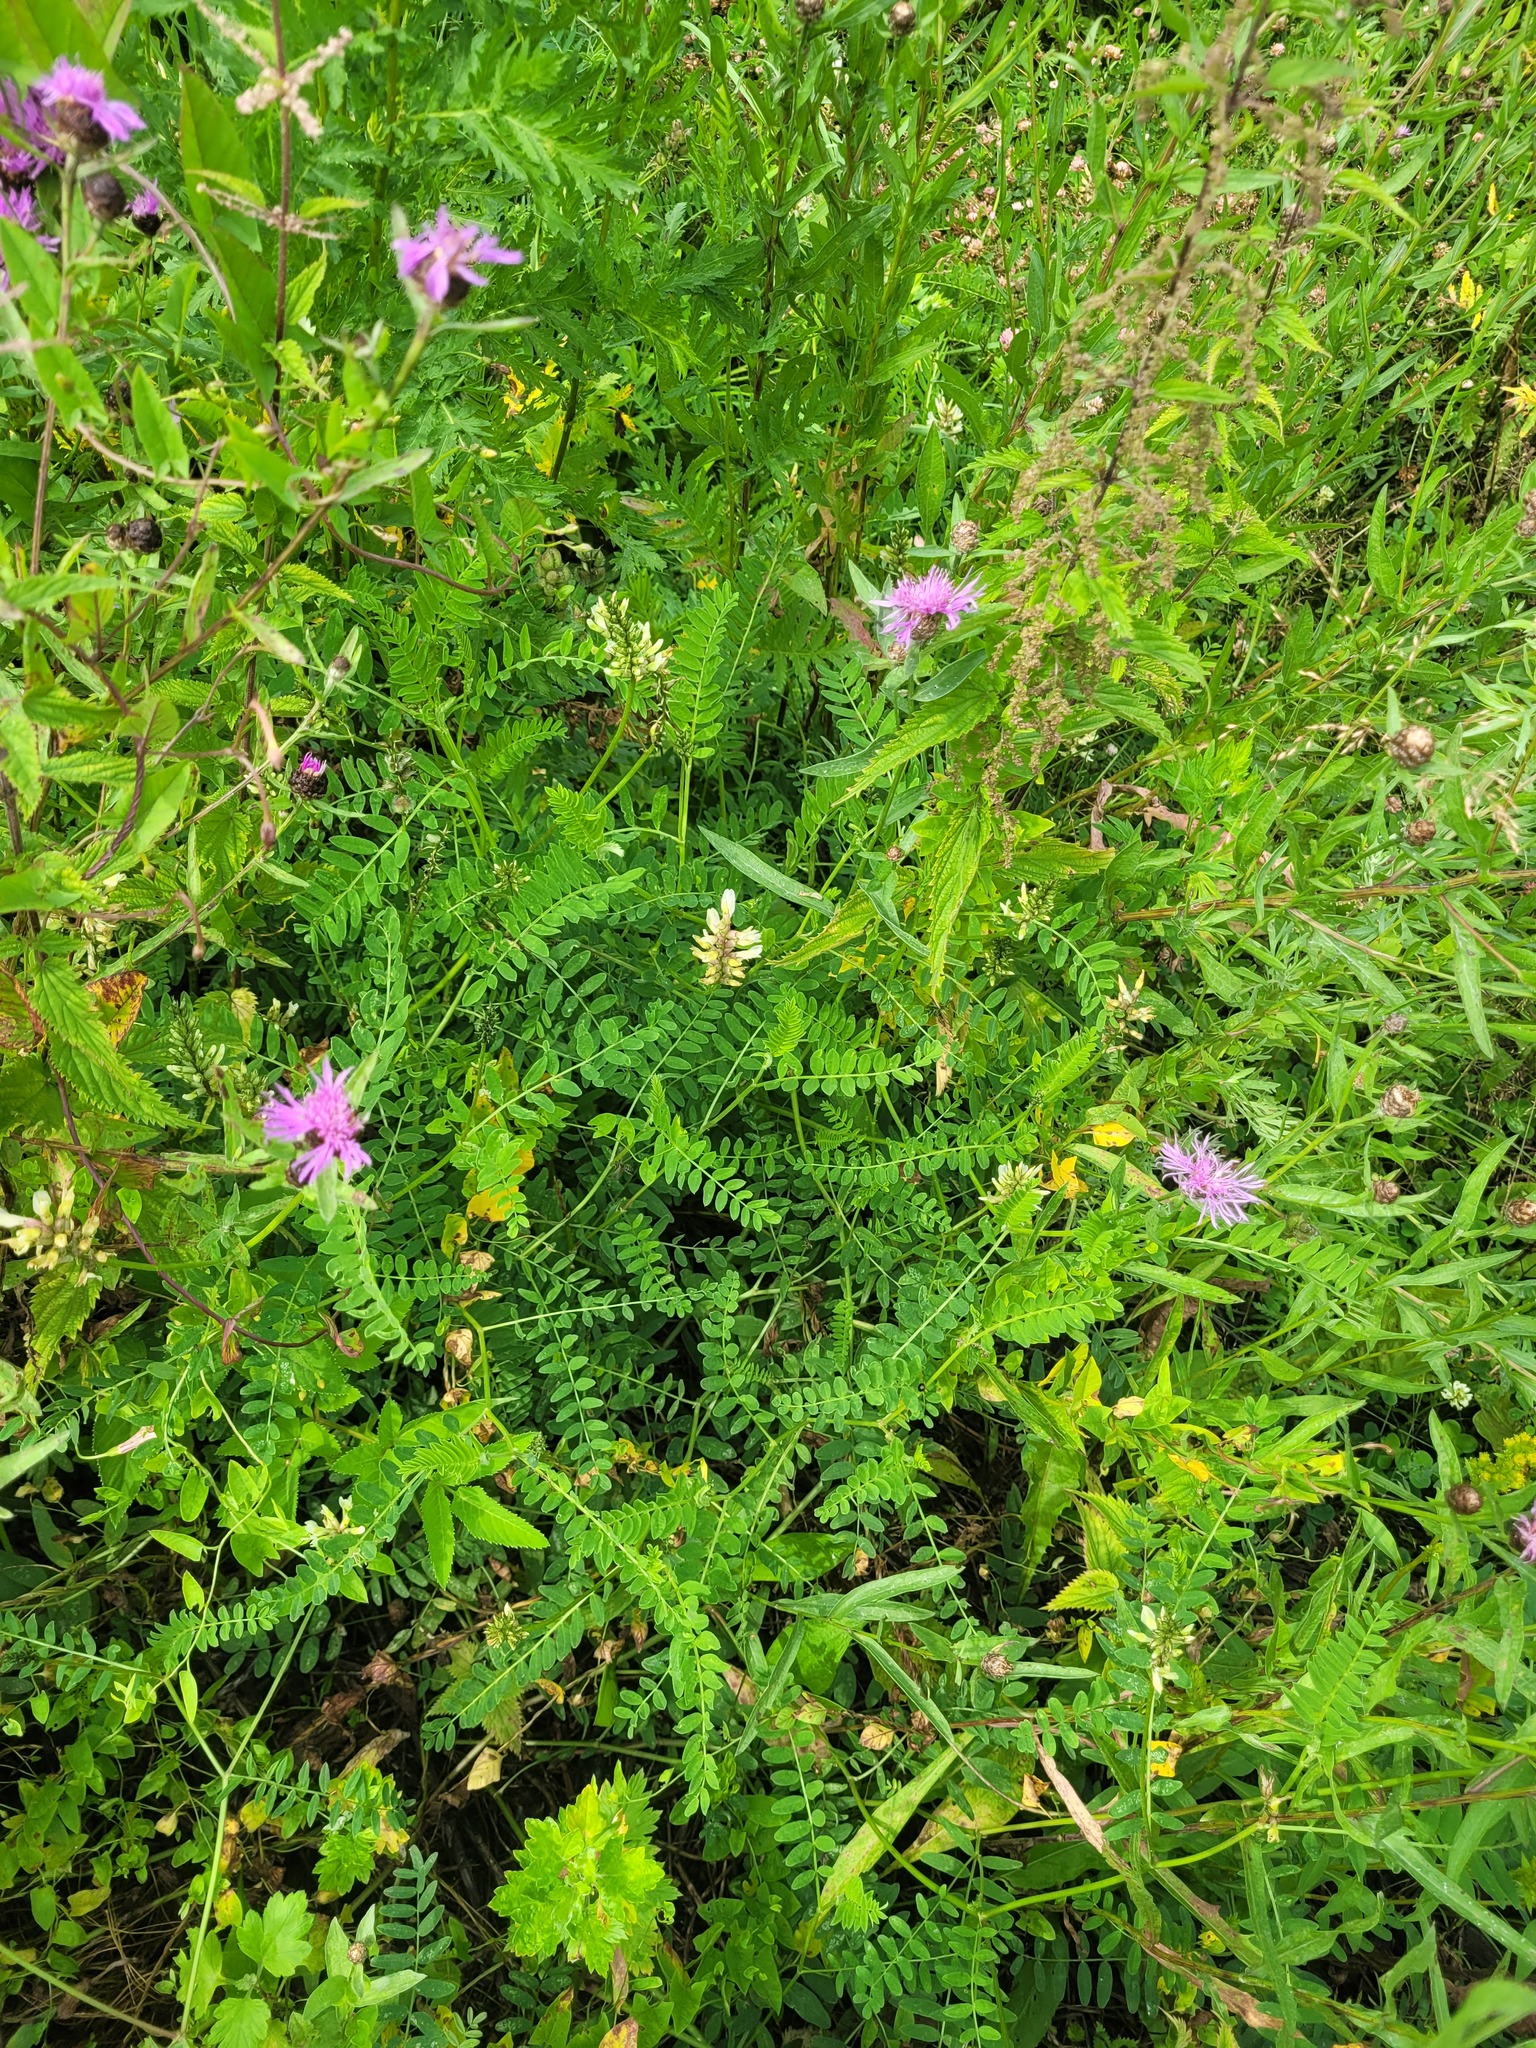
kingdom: Plantae
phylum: Tracheophyta
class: Magnoliopsida
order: Fabales
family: Fabaceae
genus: Astragalus
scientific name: Astragalus cicer
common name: Chick-pea milk-vetch
